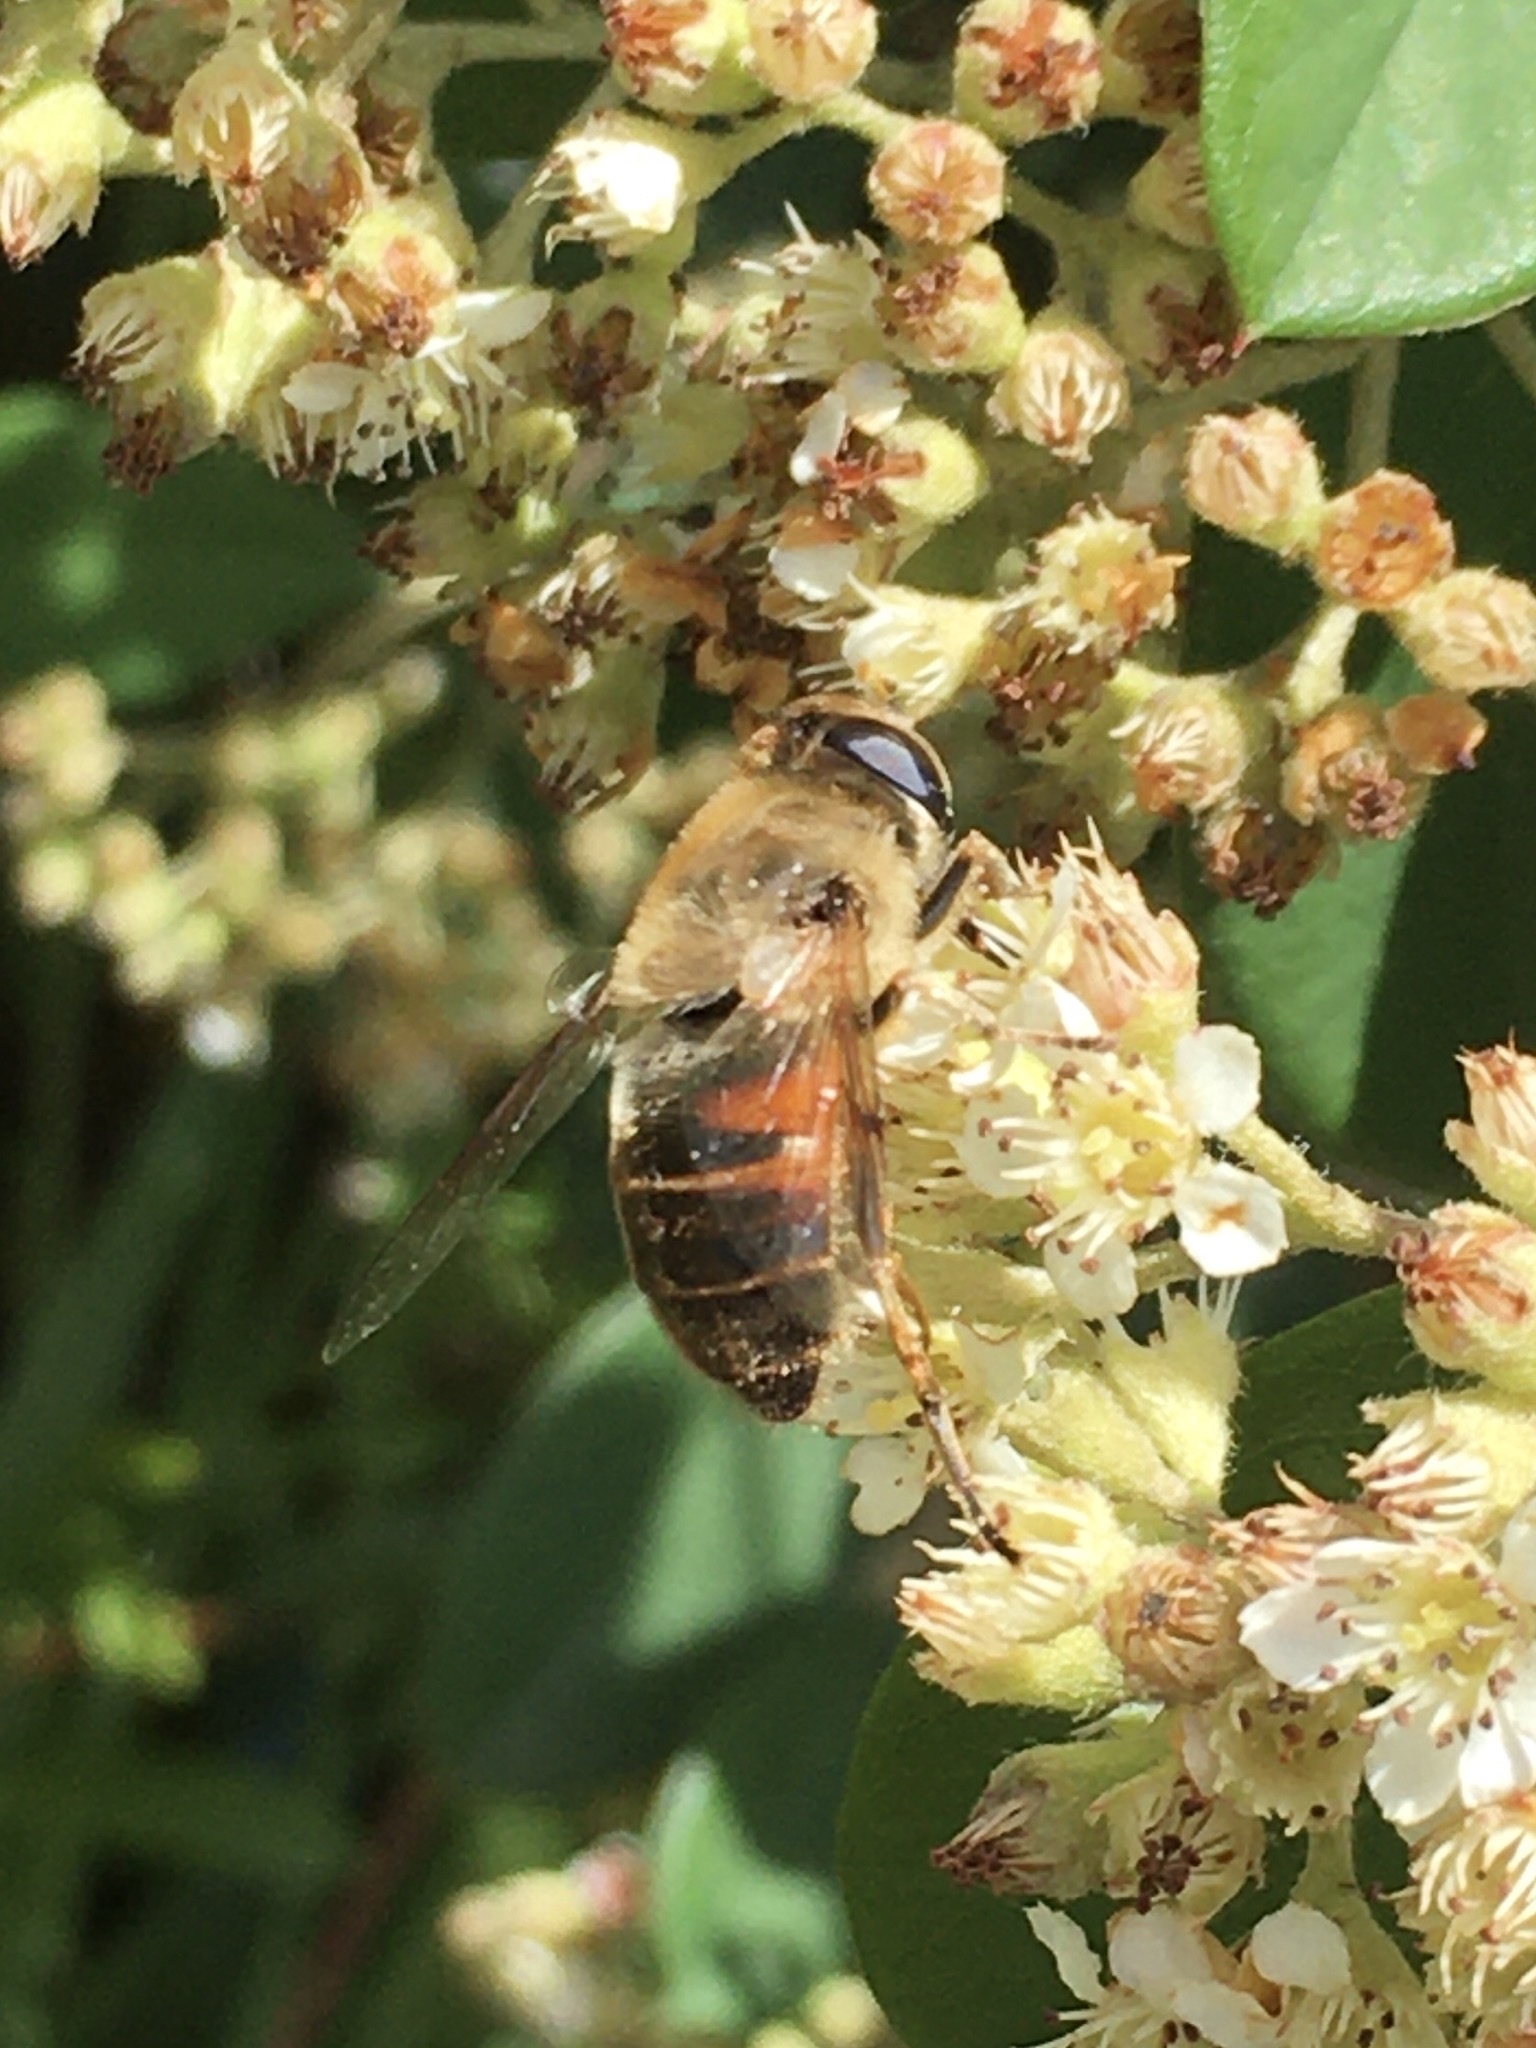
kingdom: Animalia
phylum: Arthropoda
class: Insecta
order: Diptera
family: Syrphidae
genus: Eristalis
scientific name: Eristalis tenax
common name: Drone fly
